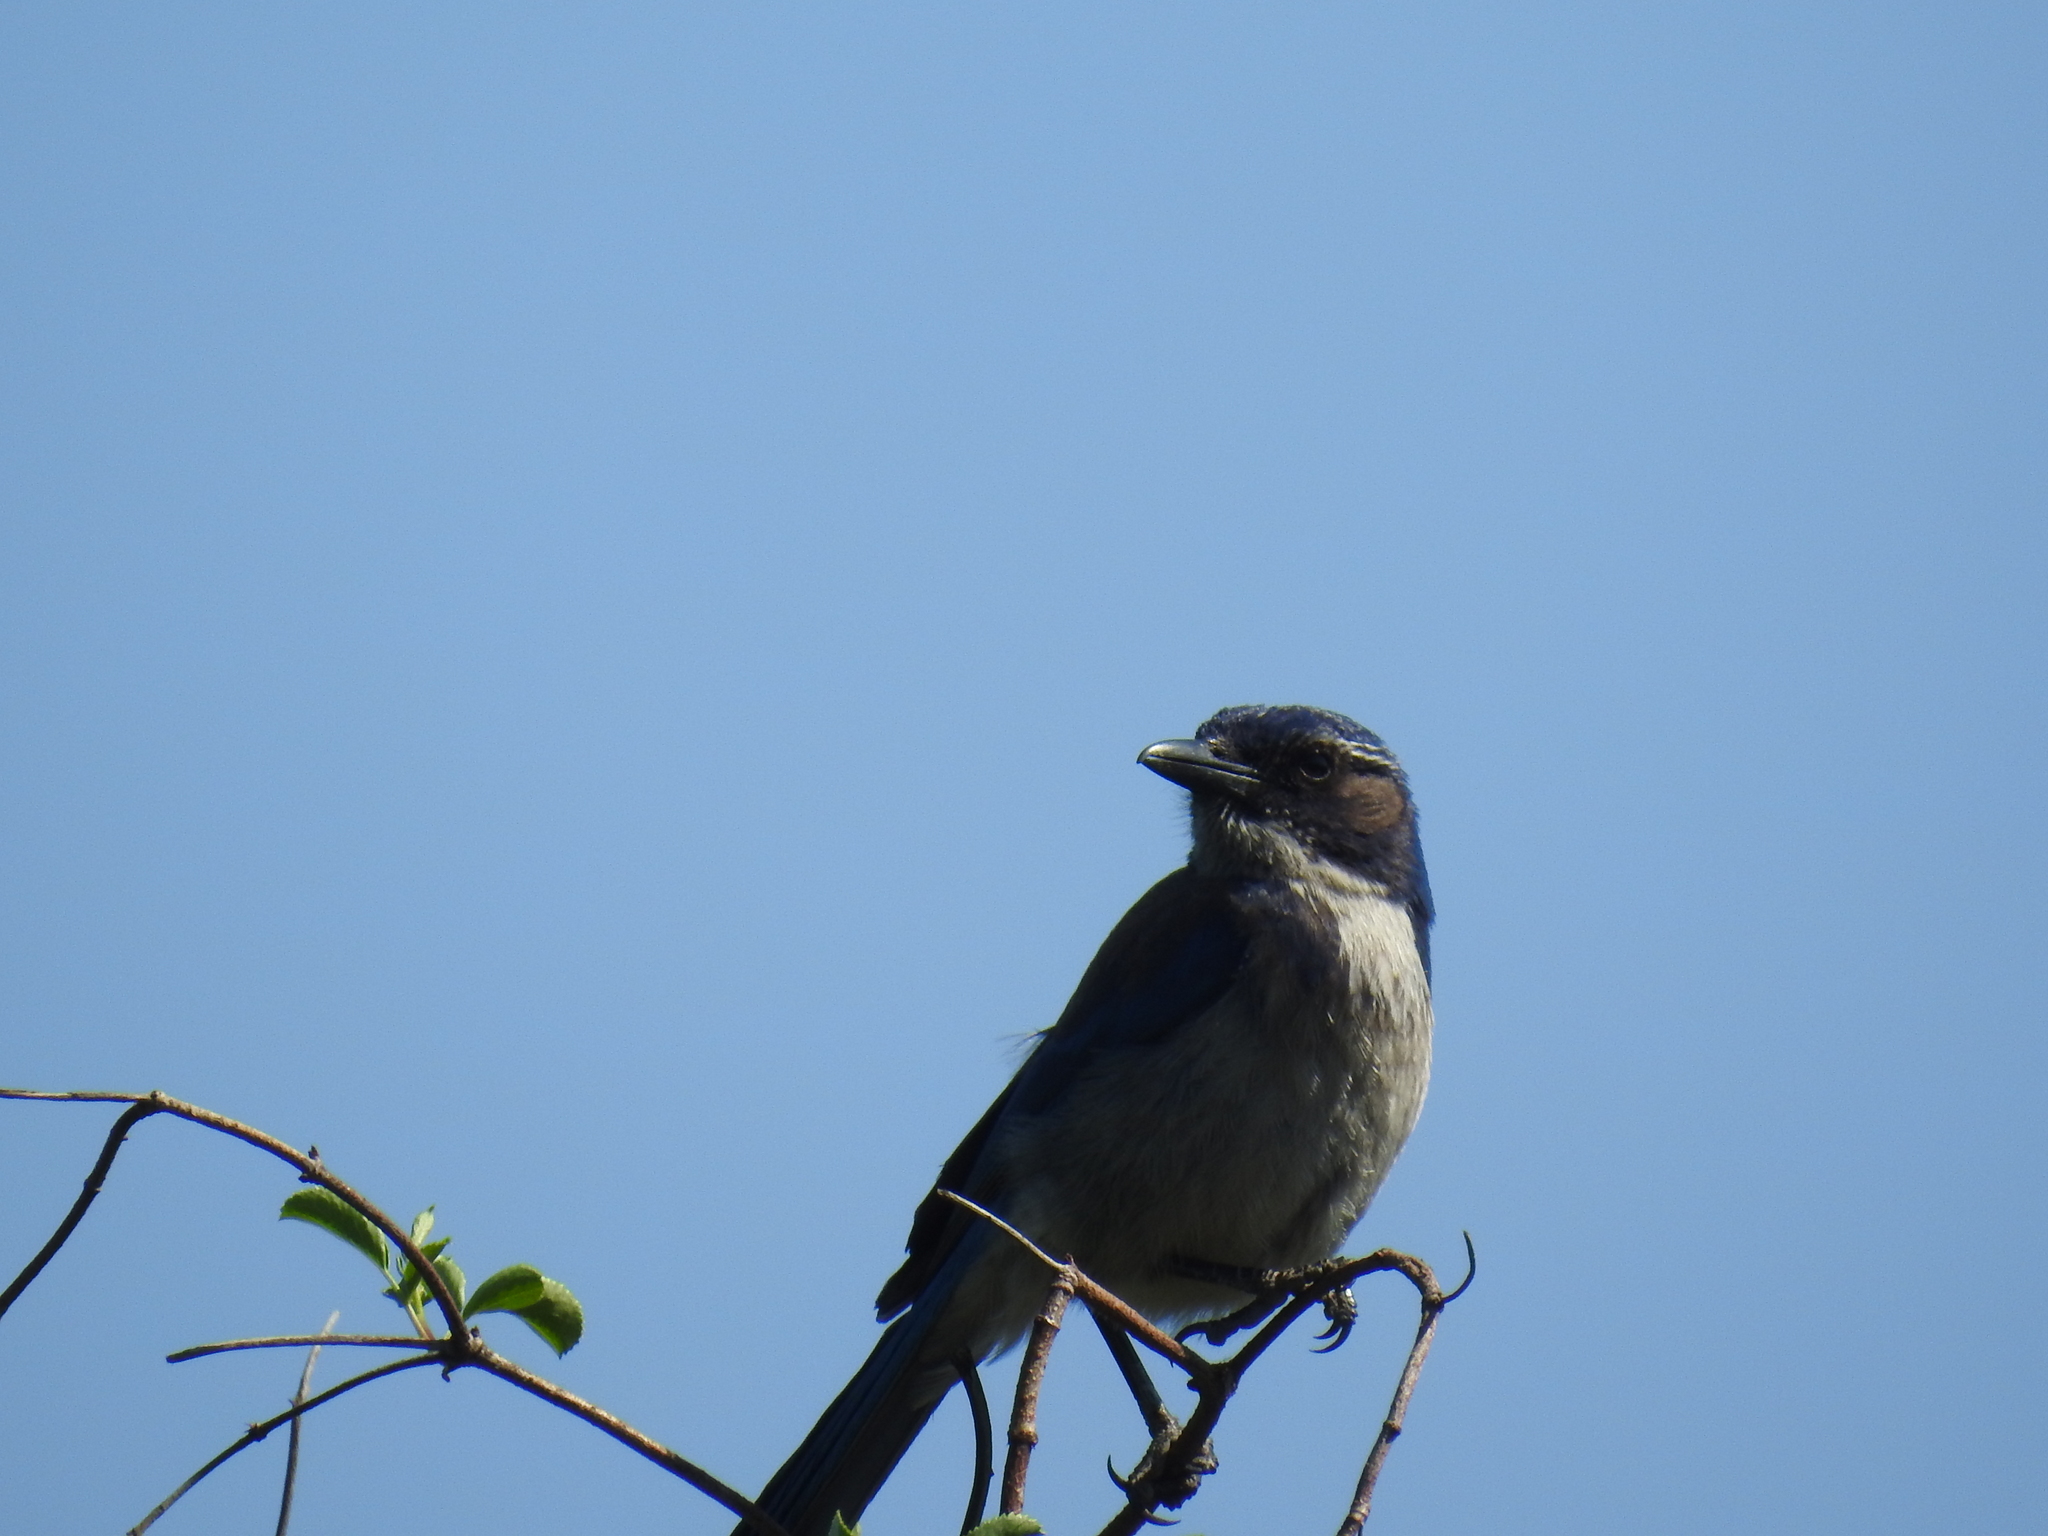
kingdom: Animalia
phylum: Chordata
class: Aves
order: Passeriformes
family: Corvidae
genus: Aphelocoma
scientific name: Aphelocoma californica
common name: California scrub-jay
